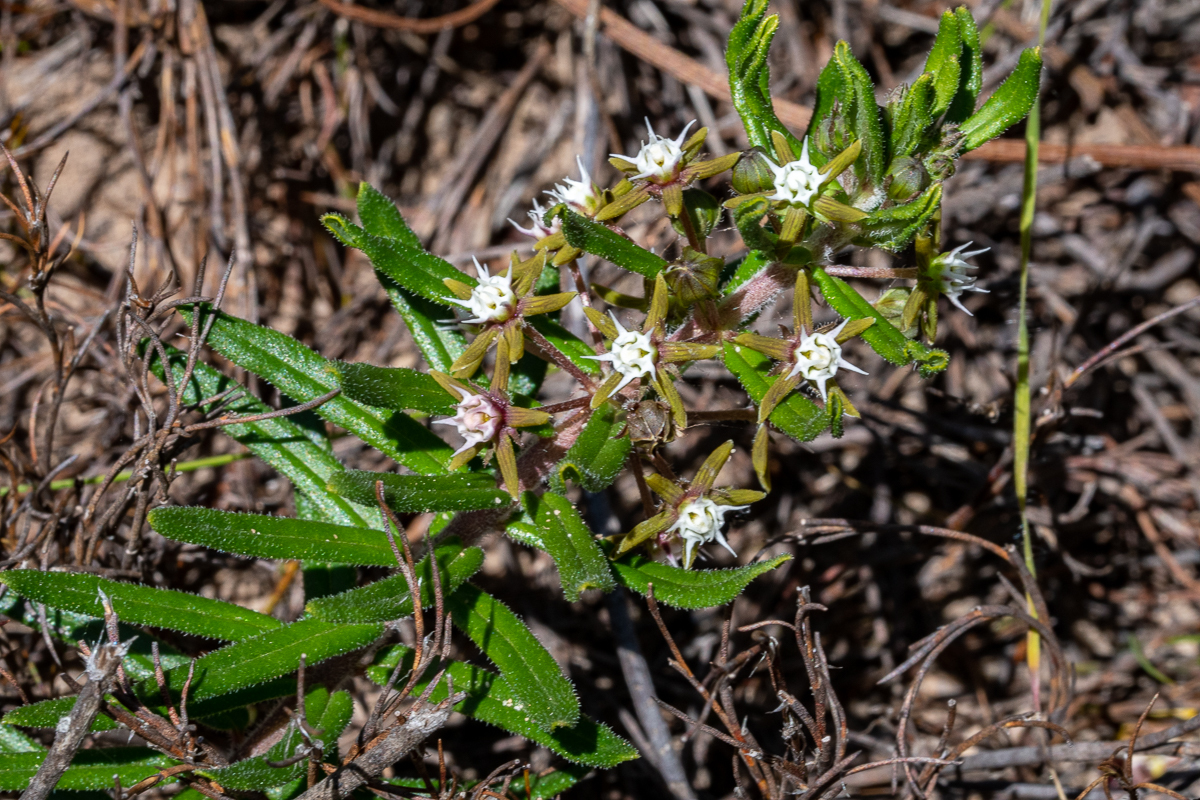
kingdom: Plantae
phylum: Tracheophyta
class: Magnoliopsida
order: Gentianales
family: Apocynaceae
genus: Aspidoglossum
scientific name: Aspidoglossum heterophyllum
